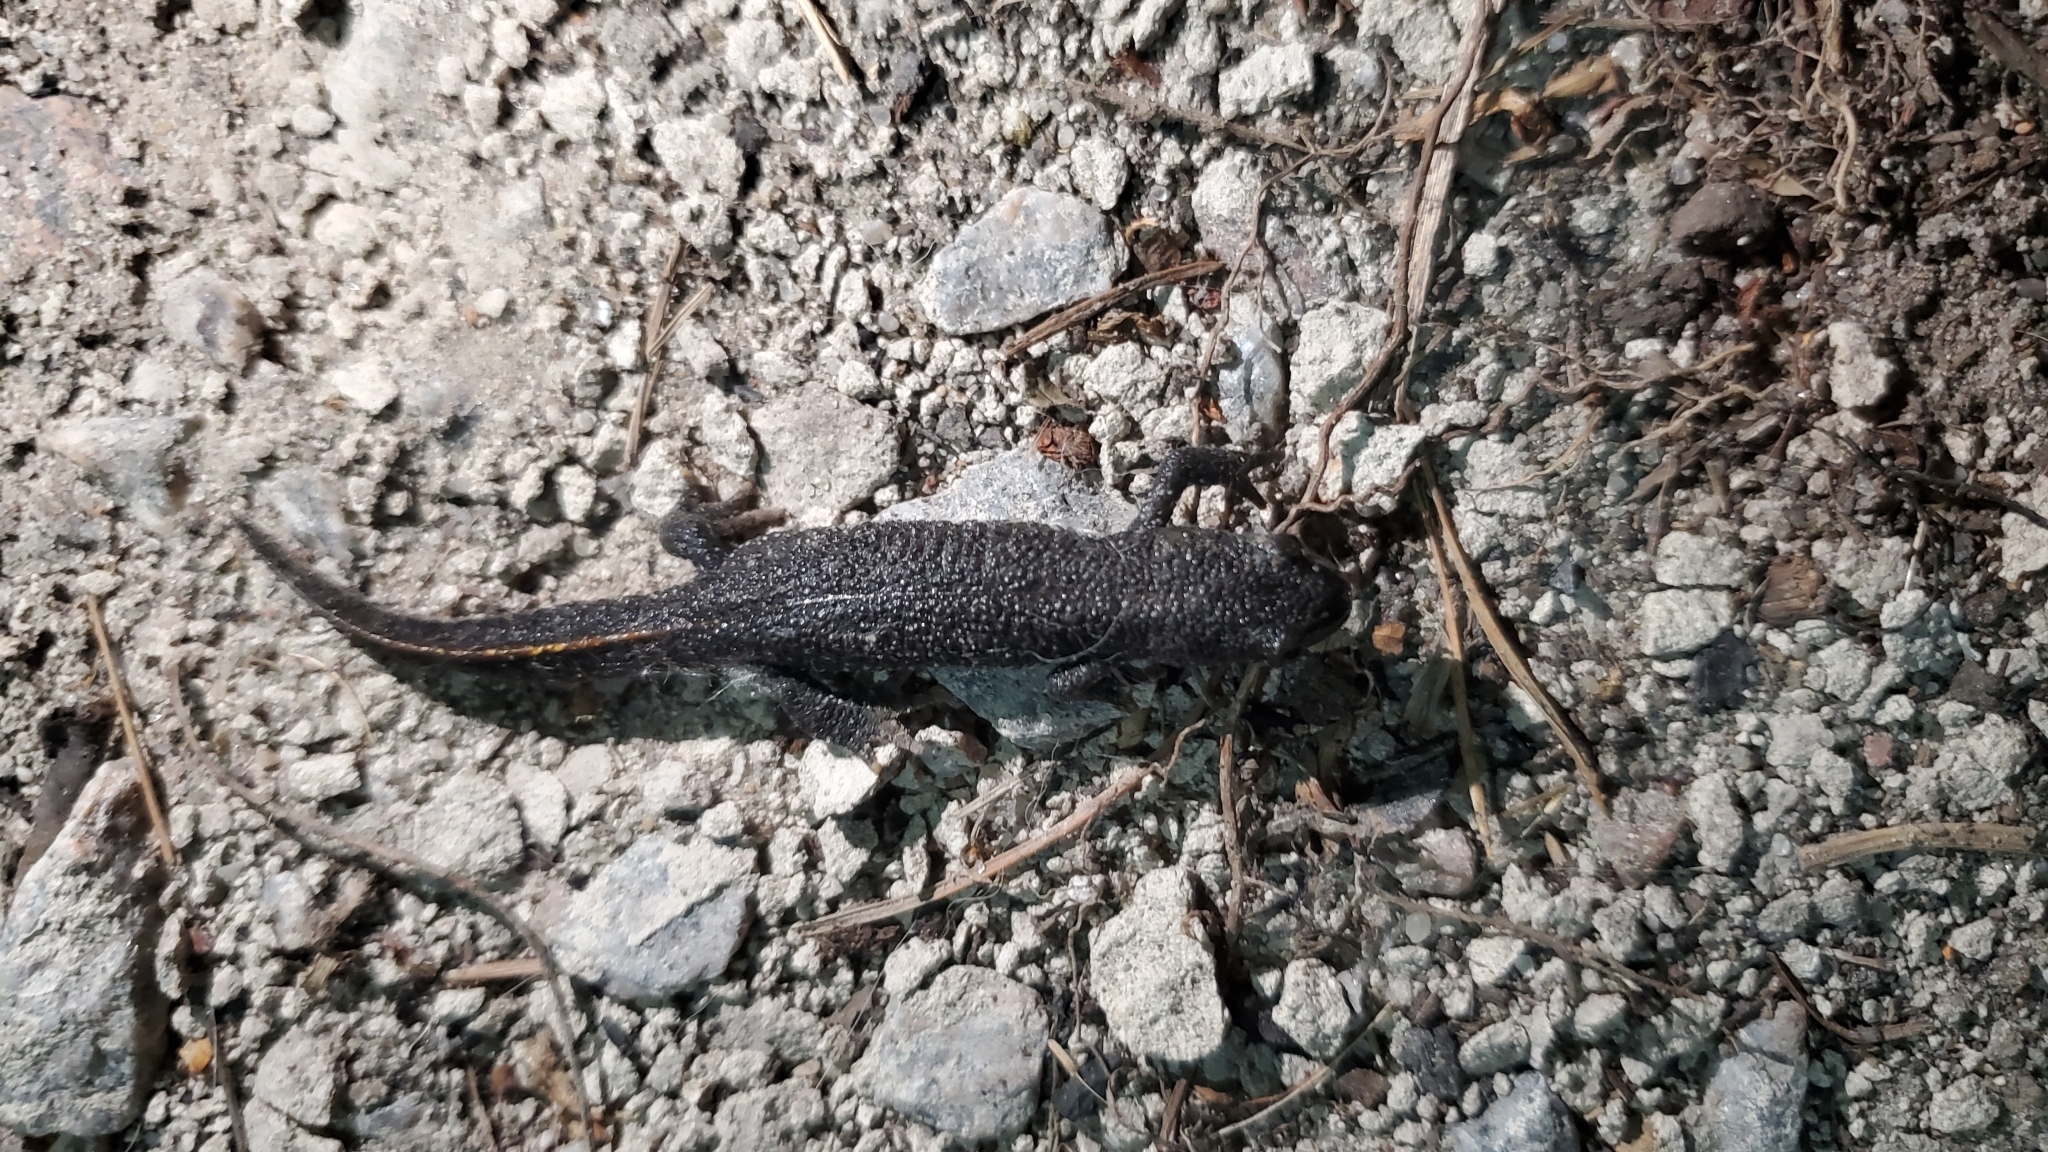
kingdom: Animalia
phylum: Chordata
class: Amphibia
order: Caudata
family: Salamandridae
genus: Triturus
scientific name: Triturus cristatus
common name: Crested newt
